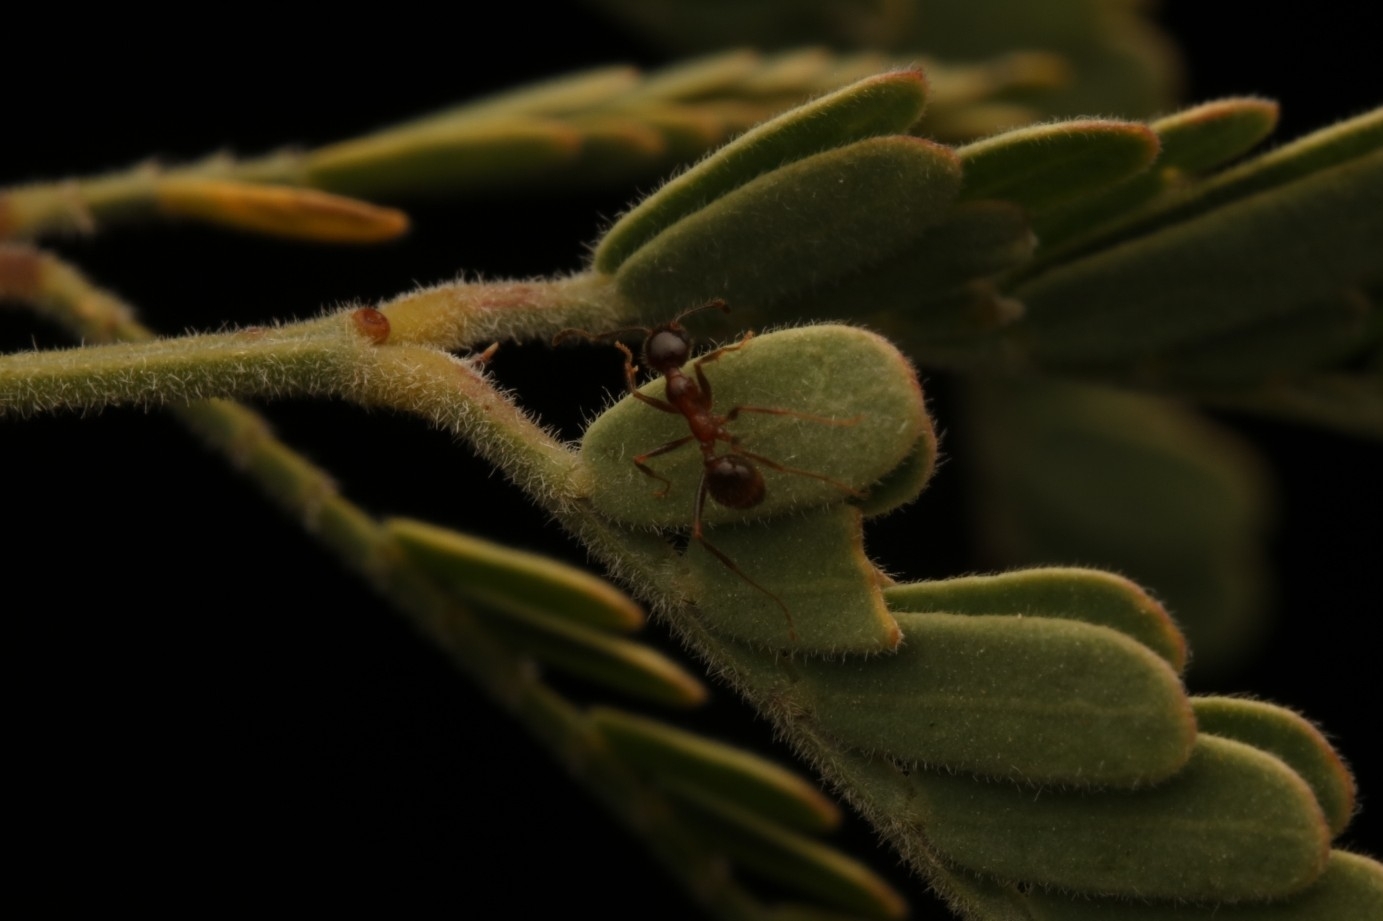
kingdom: Animalia
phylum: Arthropoda
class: Insecta
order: Hymenoptera
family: Formicidae
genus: Pheidole
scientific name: Pheidole obtusospinosa
